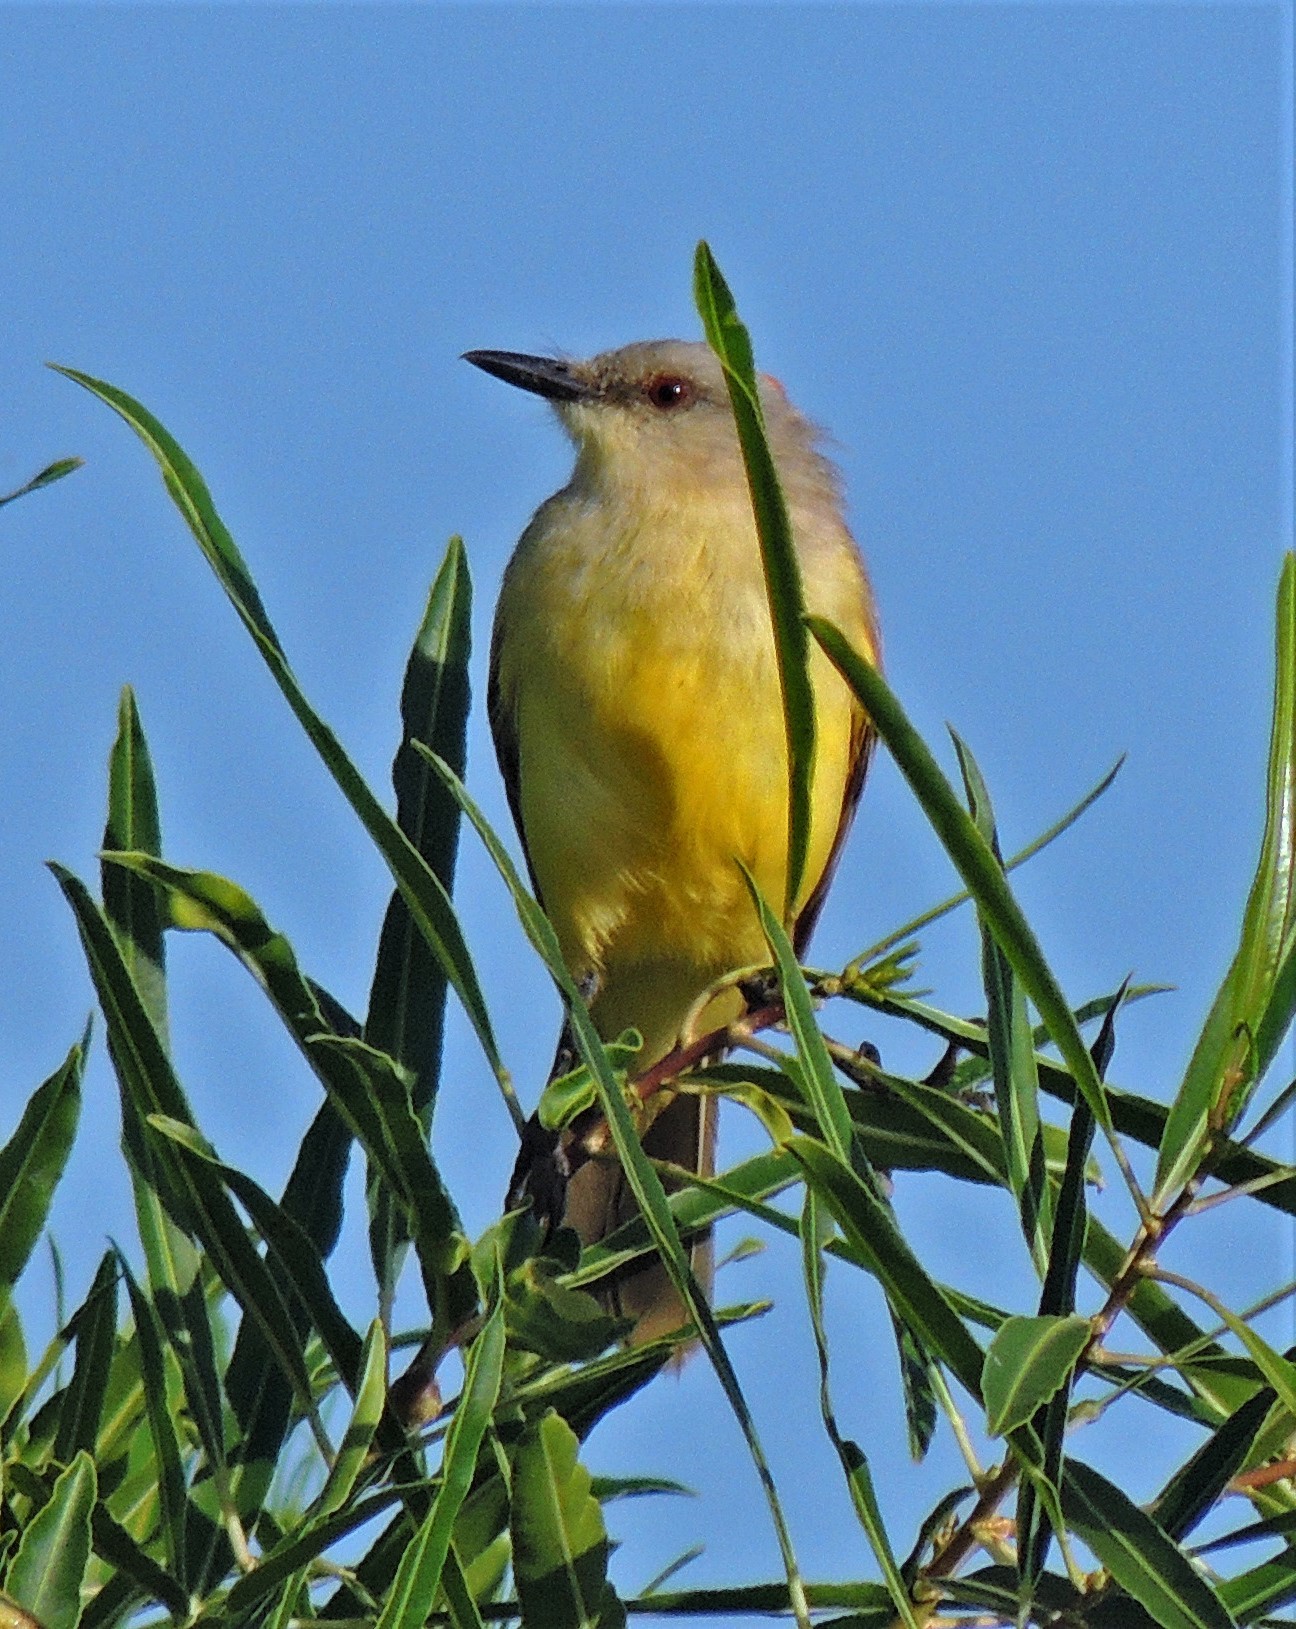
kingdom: Animalia
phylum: Chordata
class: Aves
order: Passeriformes
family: Tyrannidae
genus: Machetornis
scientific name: Machetornis rixosa
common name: Cattle tyrant
